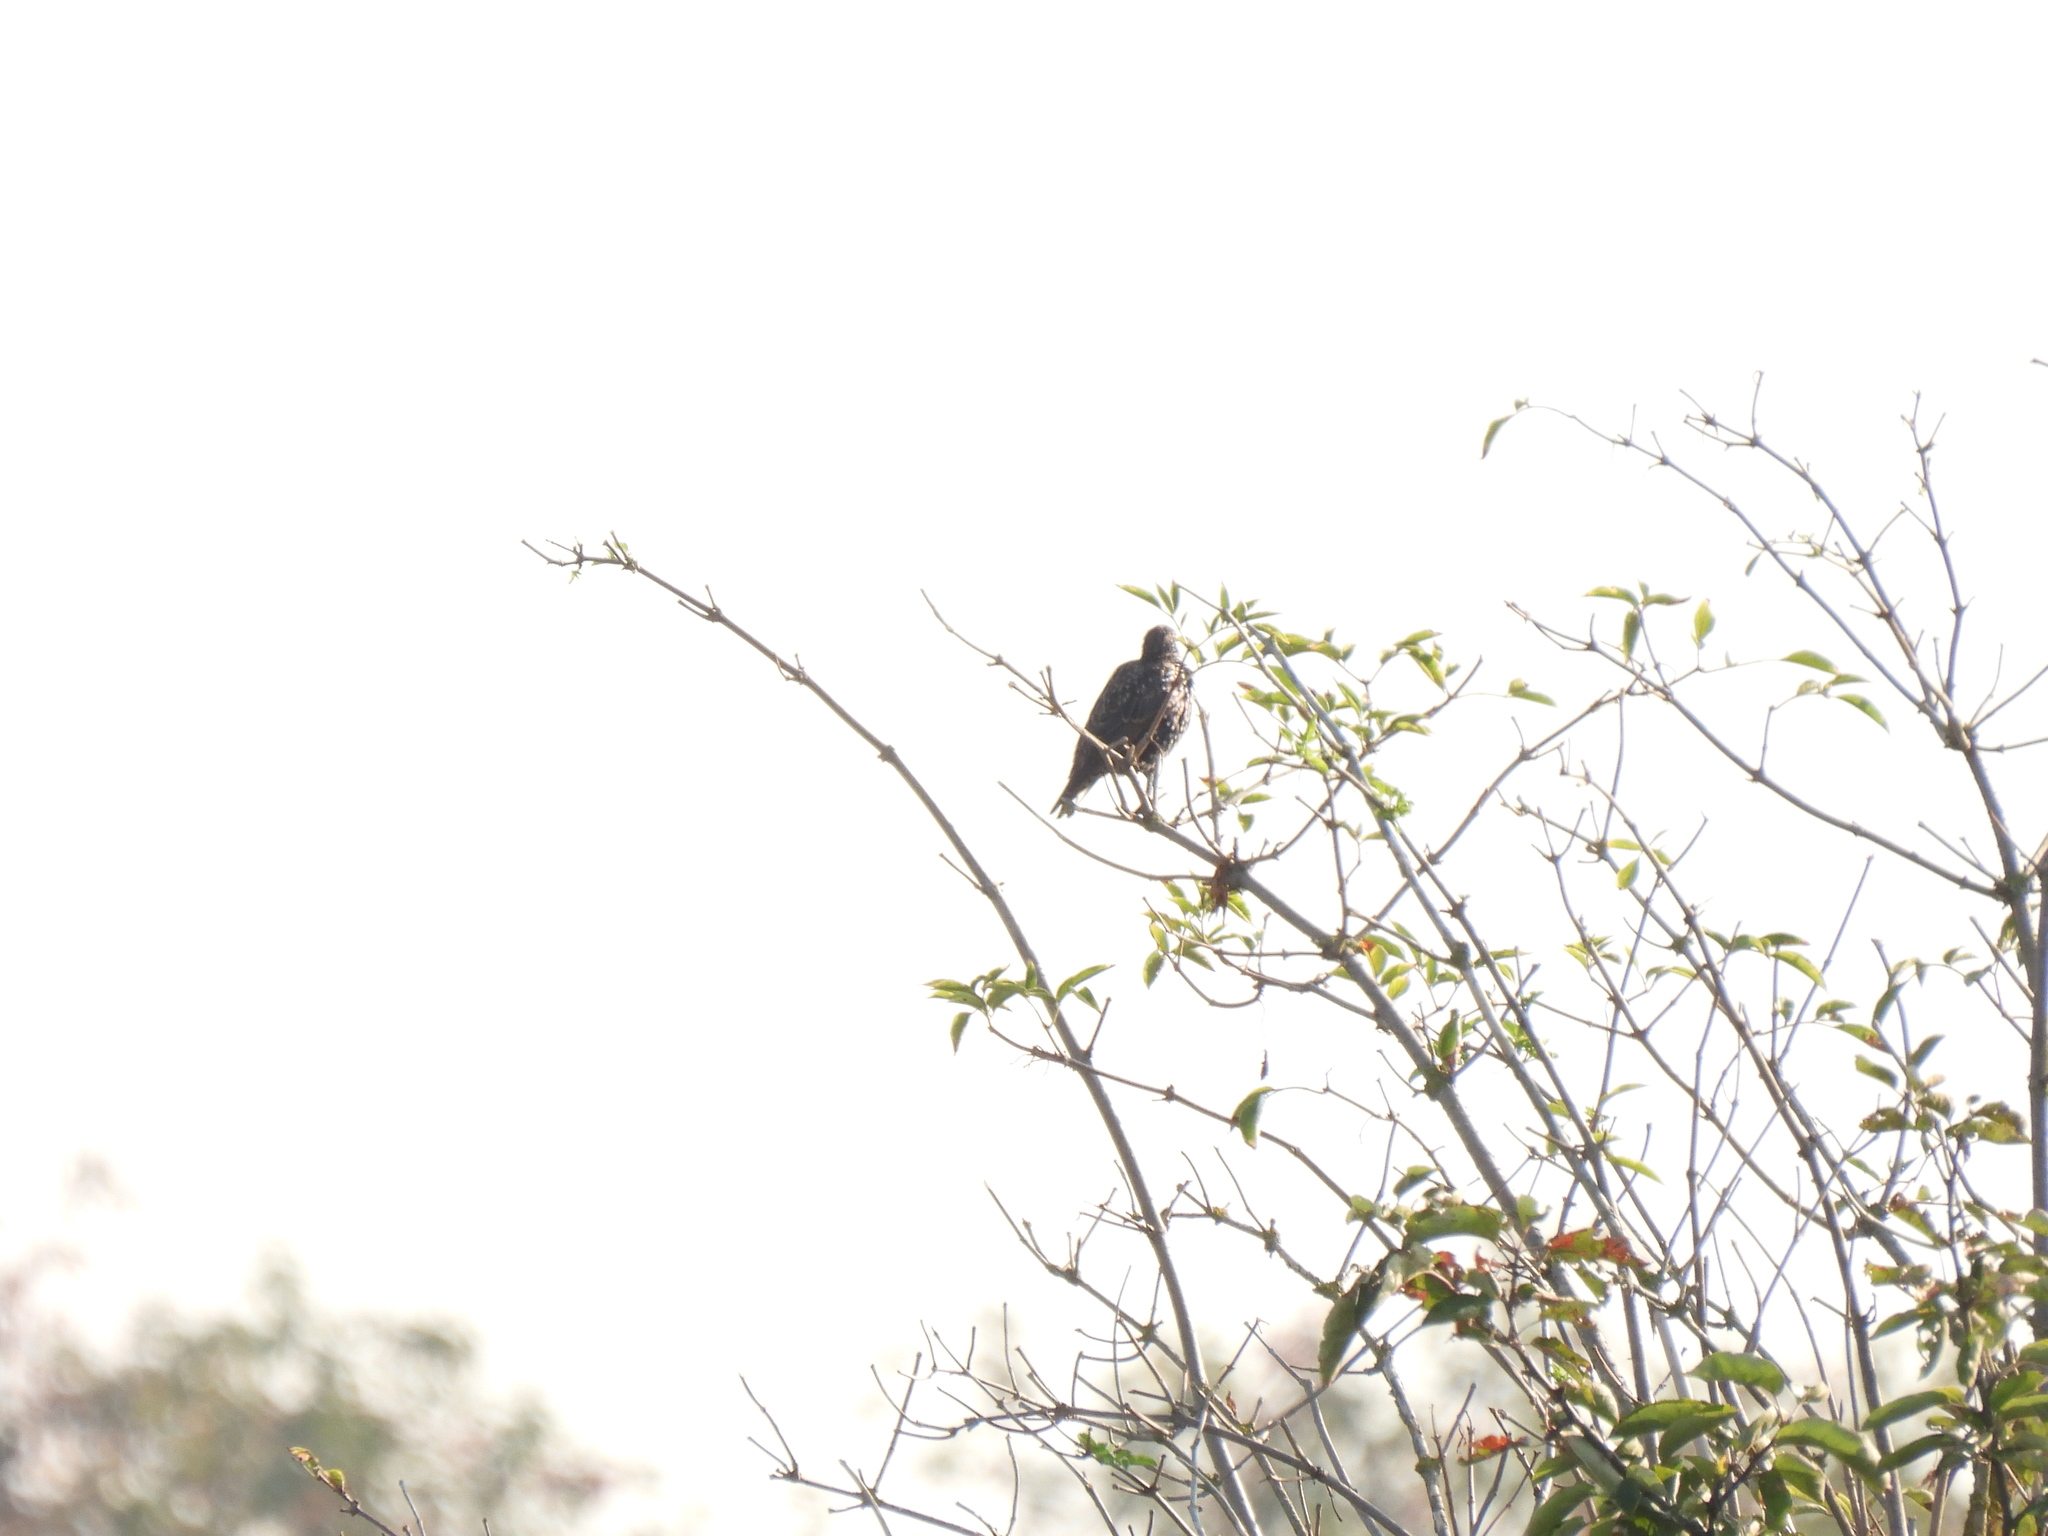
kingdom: Animalia
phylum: Chordata
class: Aves
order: Passeriformes
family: Sturnidae
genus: Sturnus
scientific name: Sturnus vulgaris
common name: Common starling
